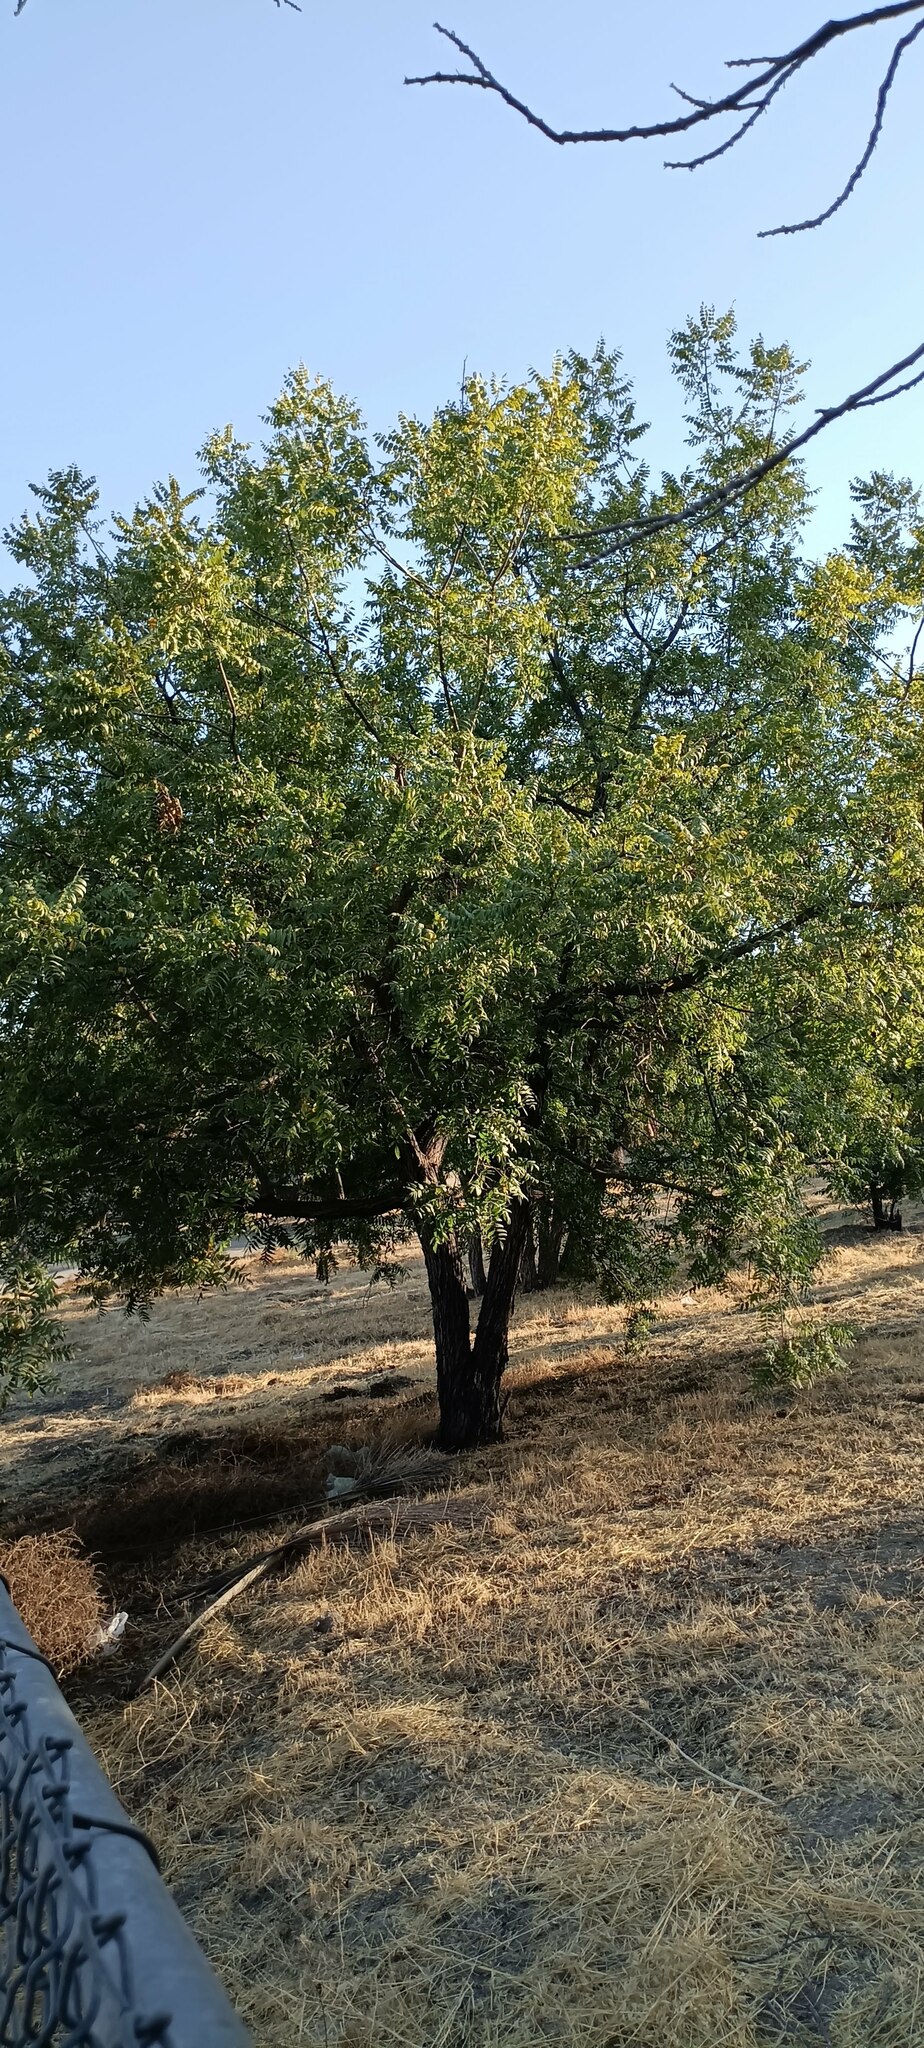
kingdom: Plantae
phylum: Tracheophyta
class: Magnoliopsida
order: Fagales
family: Juglandaceae
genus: Juglans
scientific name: Juglans californica
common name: Southern california black walnut
